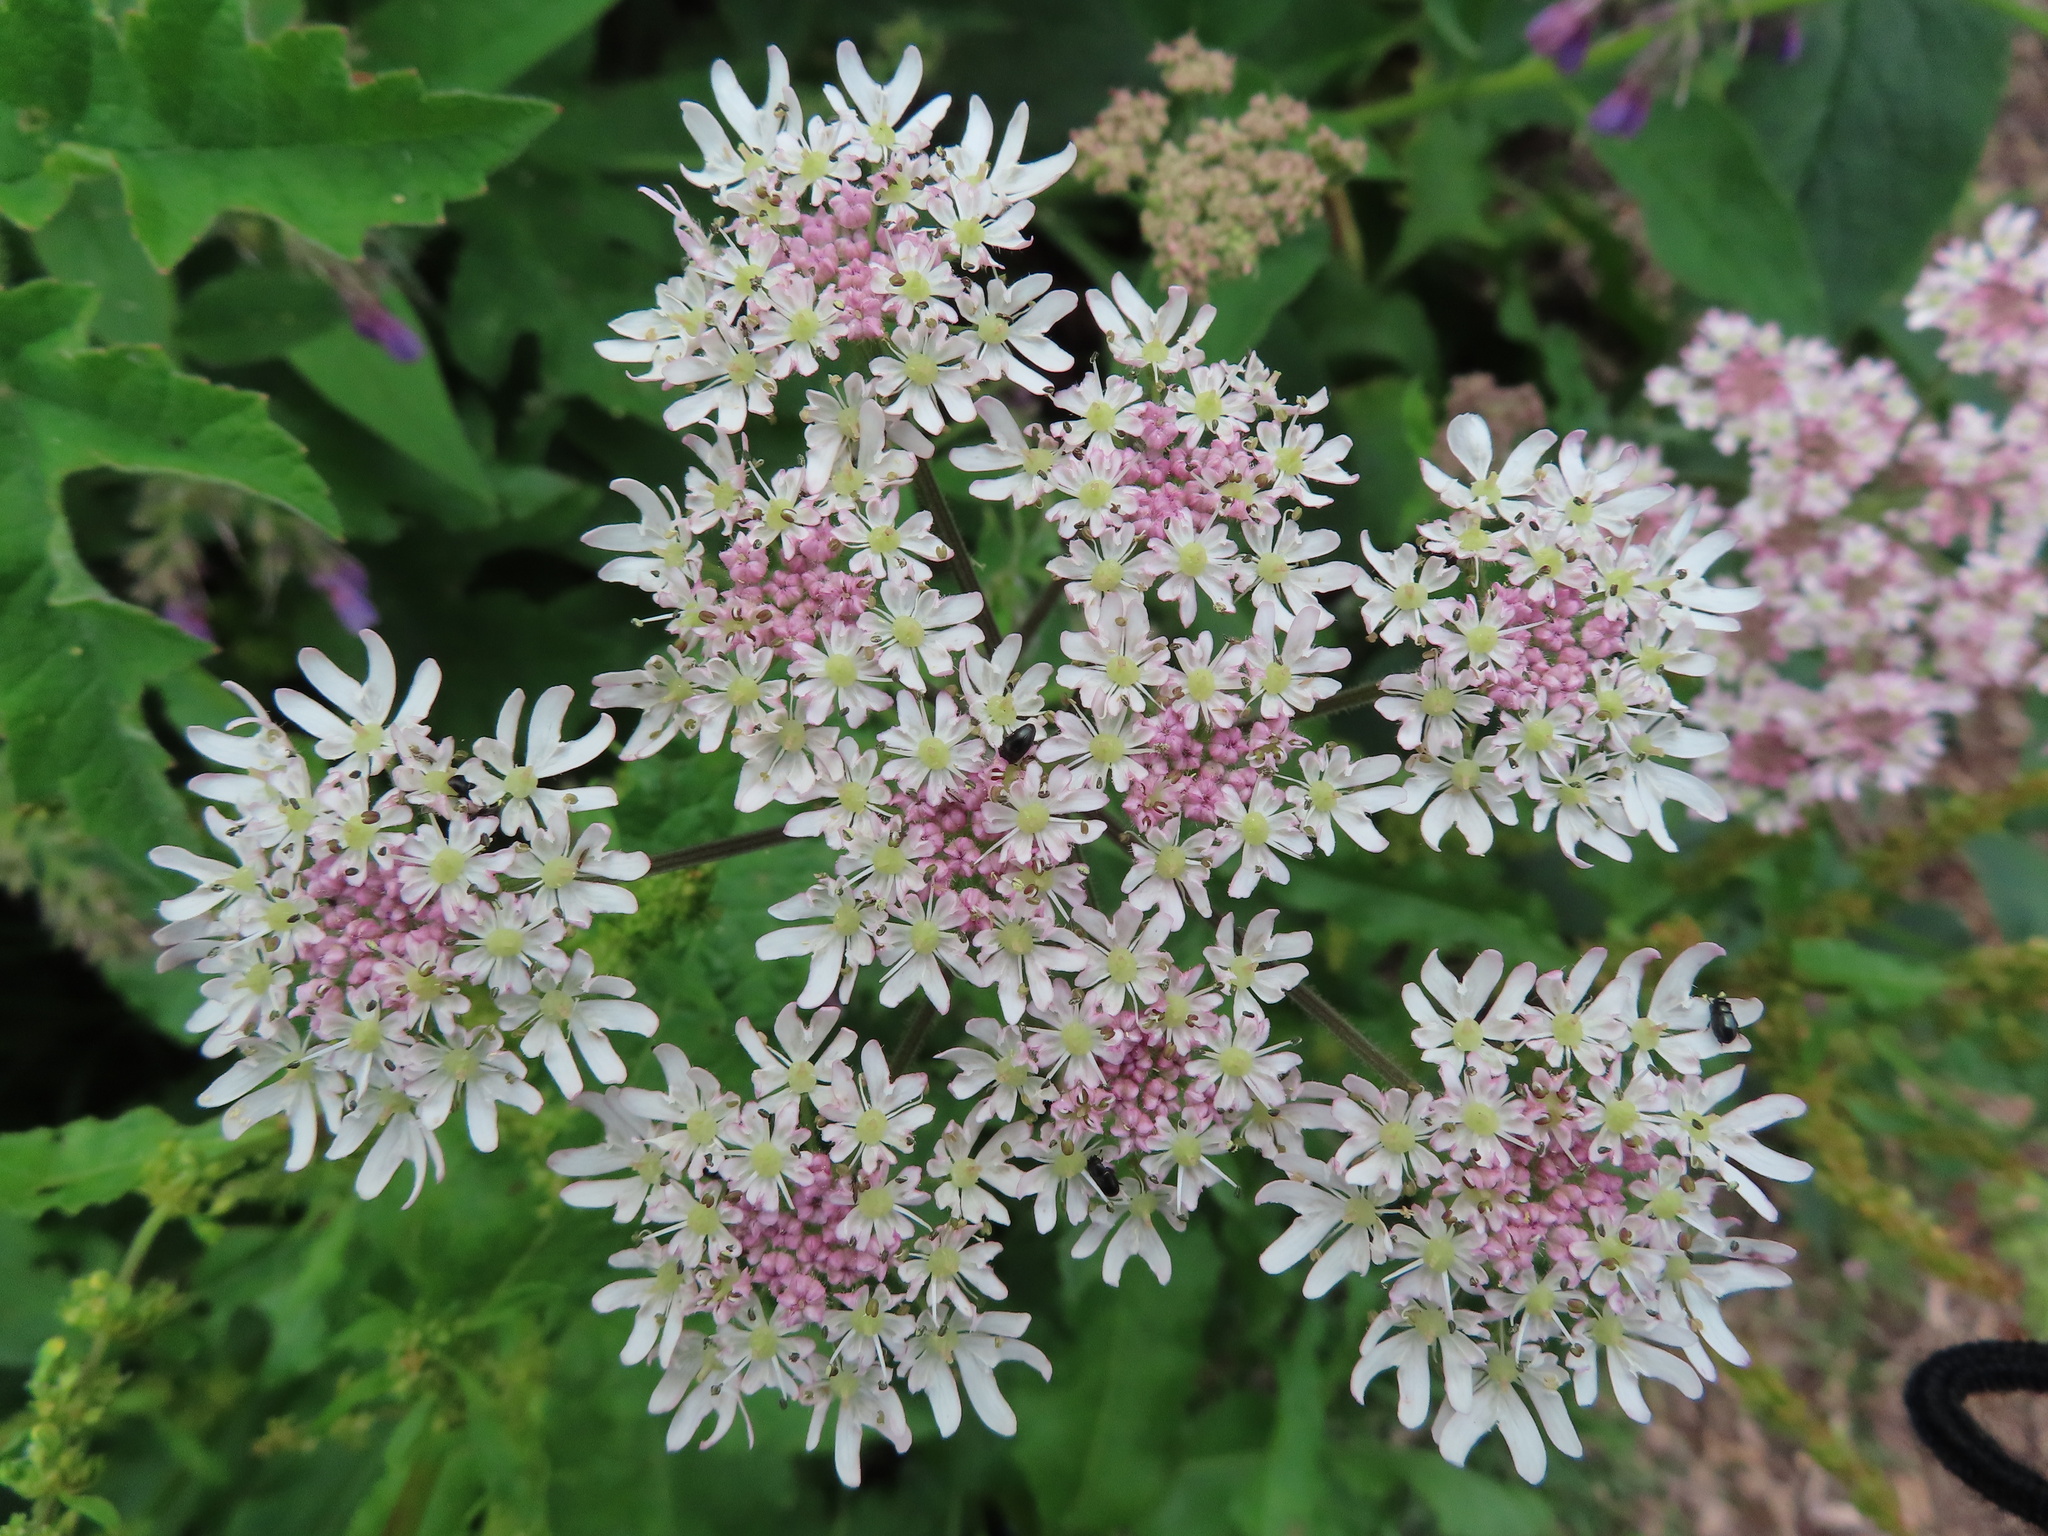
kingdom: Plantae
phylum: Tracheophyta
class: Magnoliopsida
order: Apiales
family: Apiaceae
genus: Heracleum
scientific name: Heracleum sphondylium
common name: Hogweed
